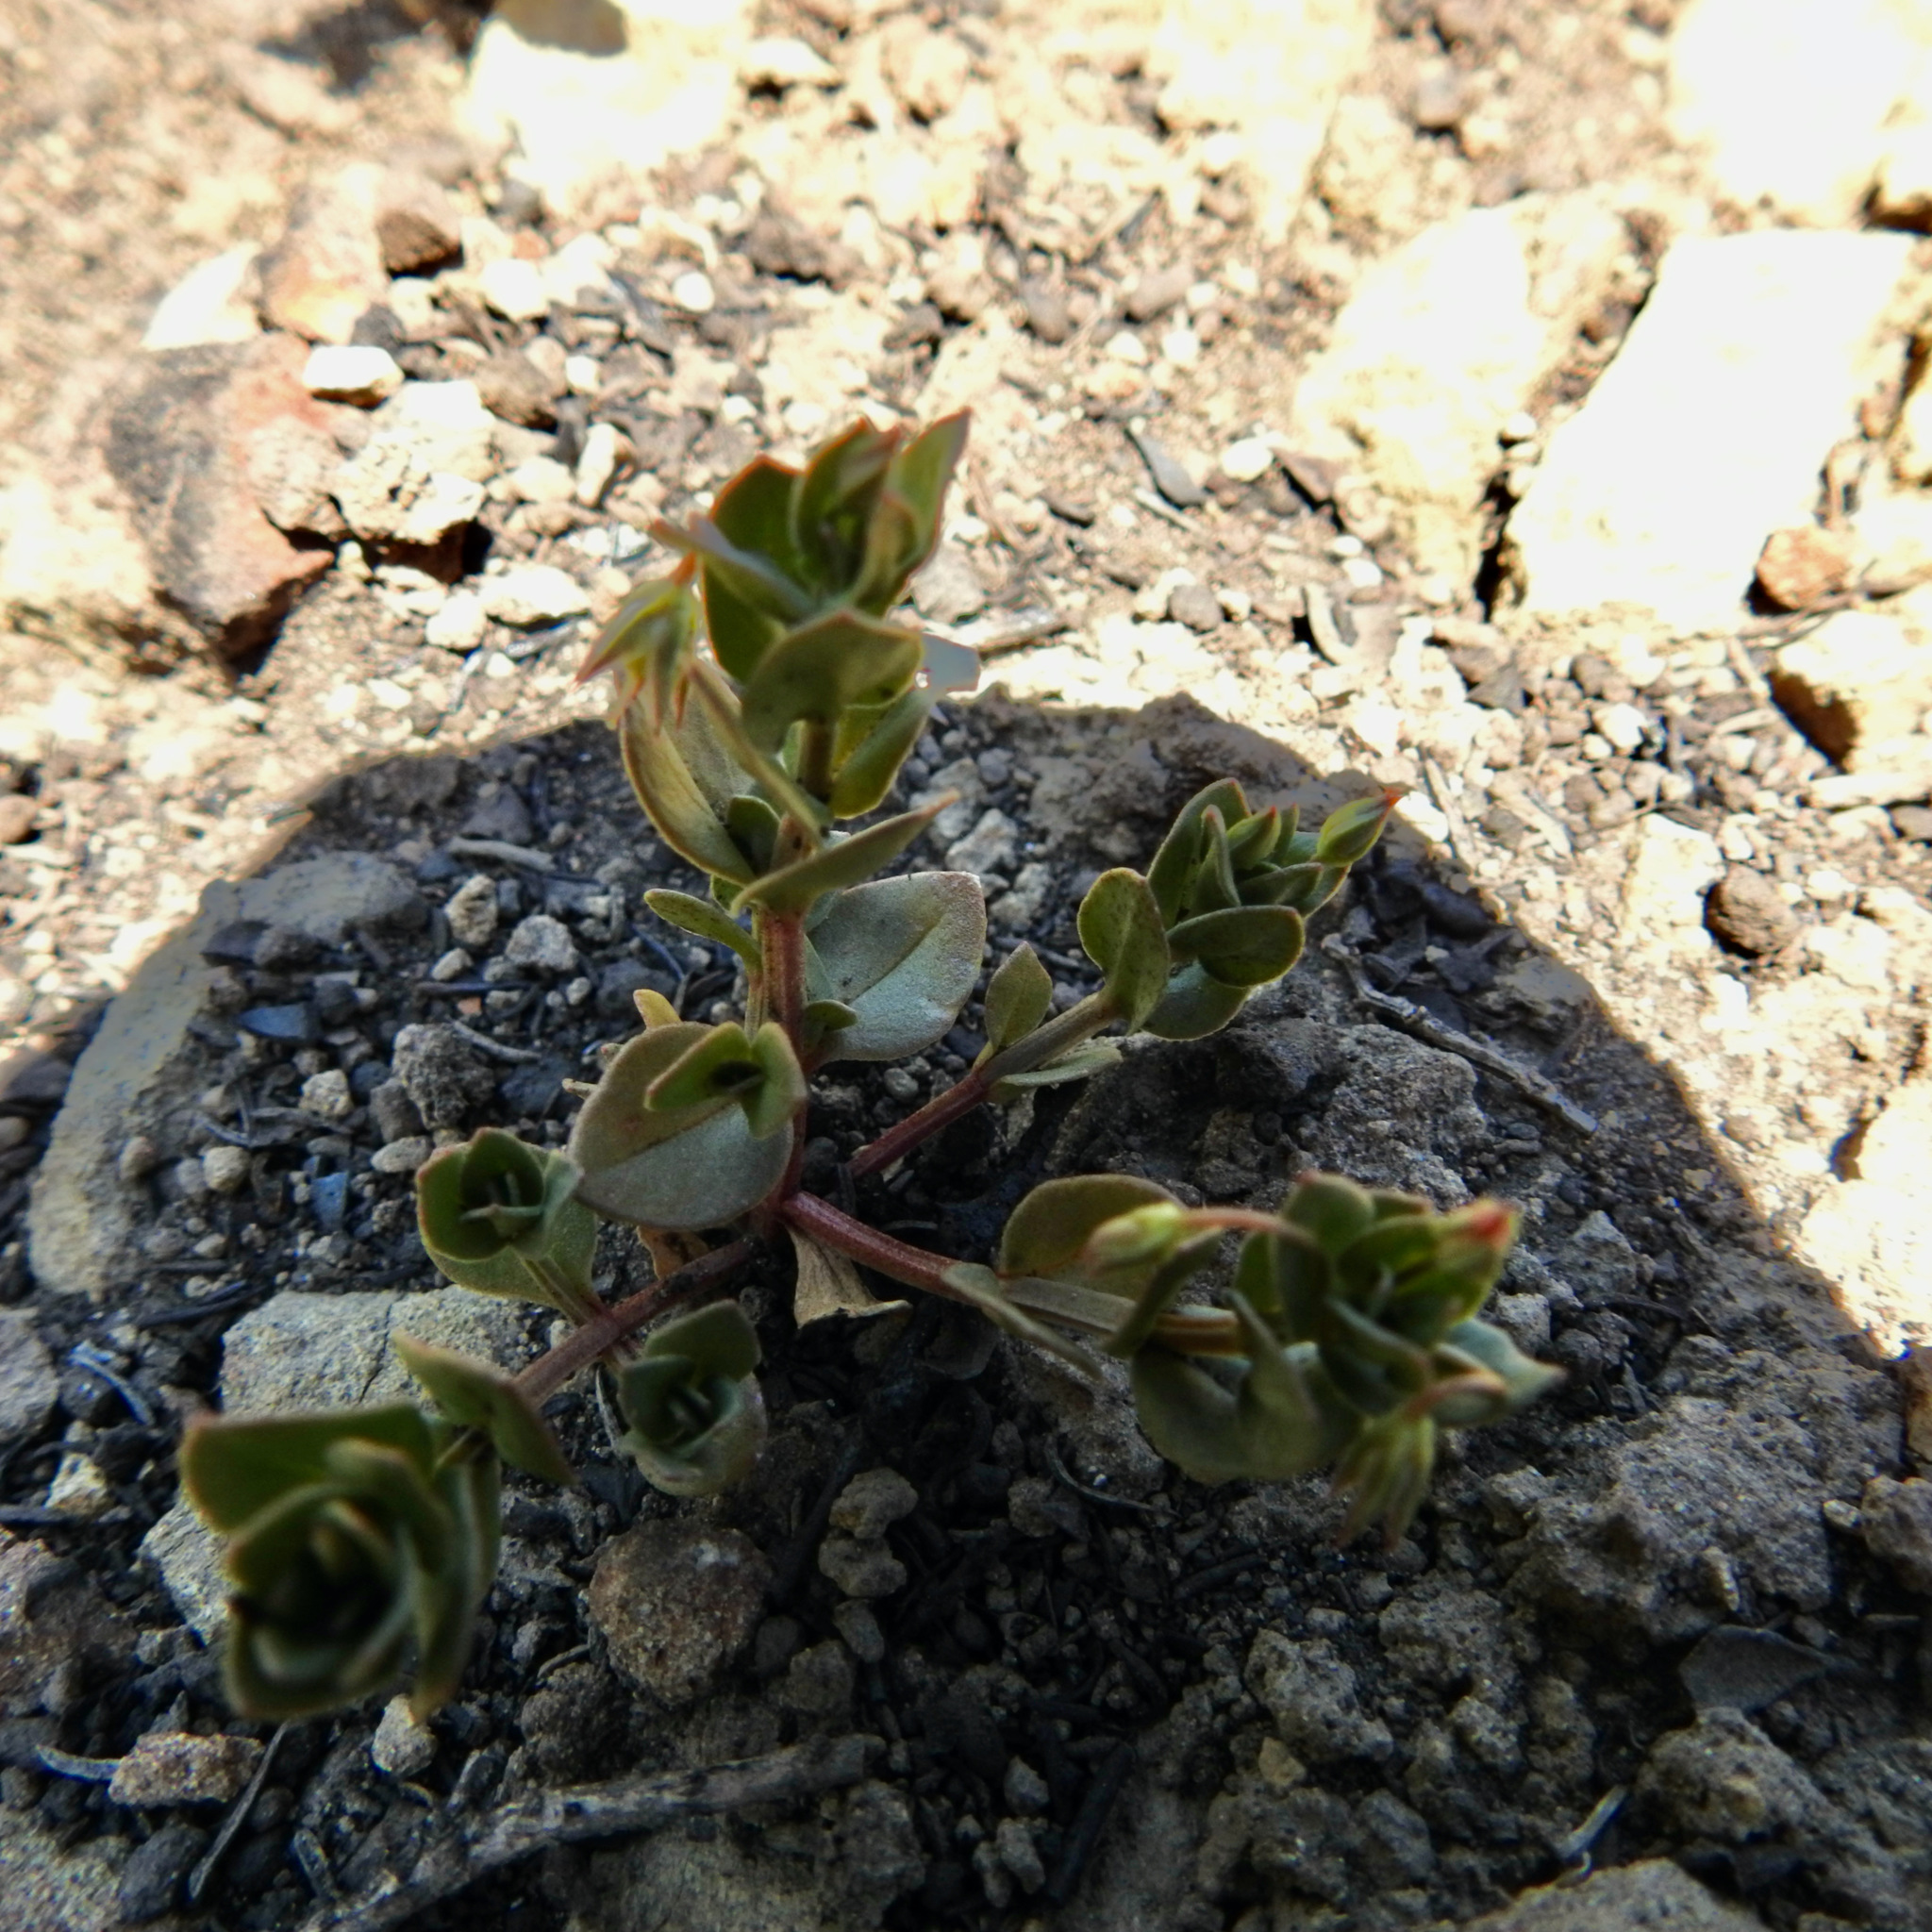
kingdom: Plantae
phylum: Tracheophyta
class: Magnoliopsida
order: Ericales
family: Primulaceae
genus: Lysimachia
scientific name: Lysimachia arvensis
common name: Scarlet pimpernel
